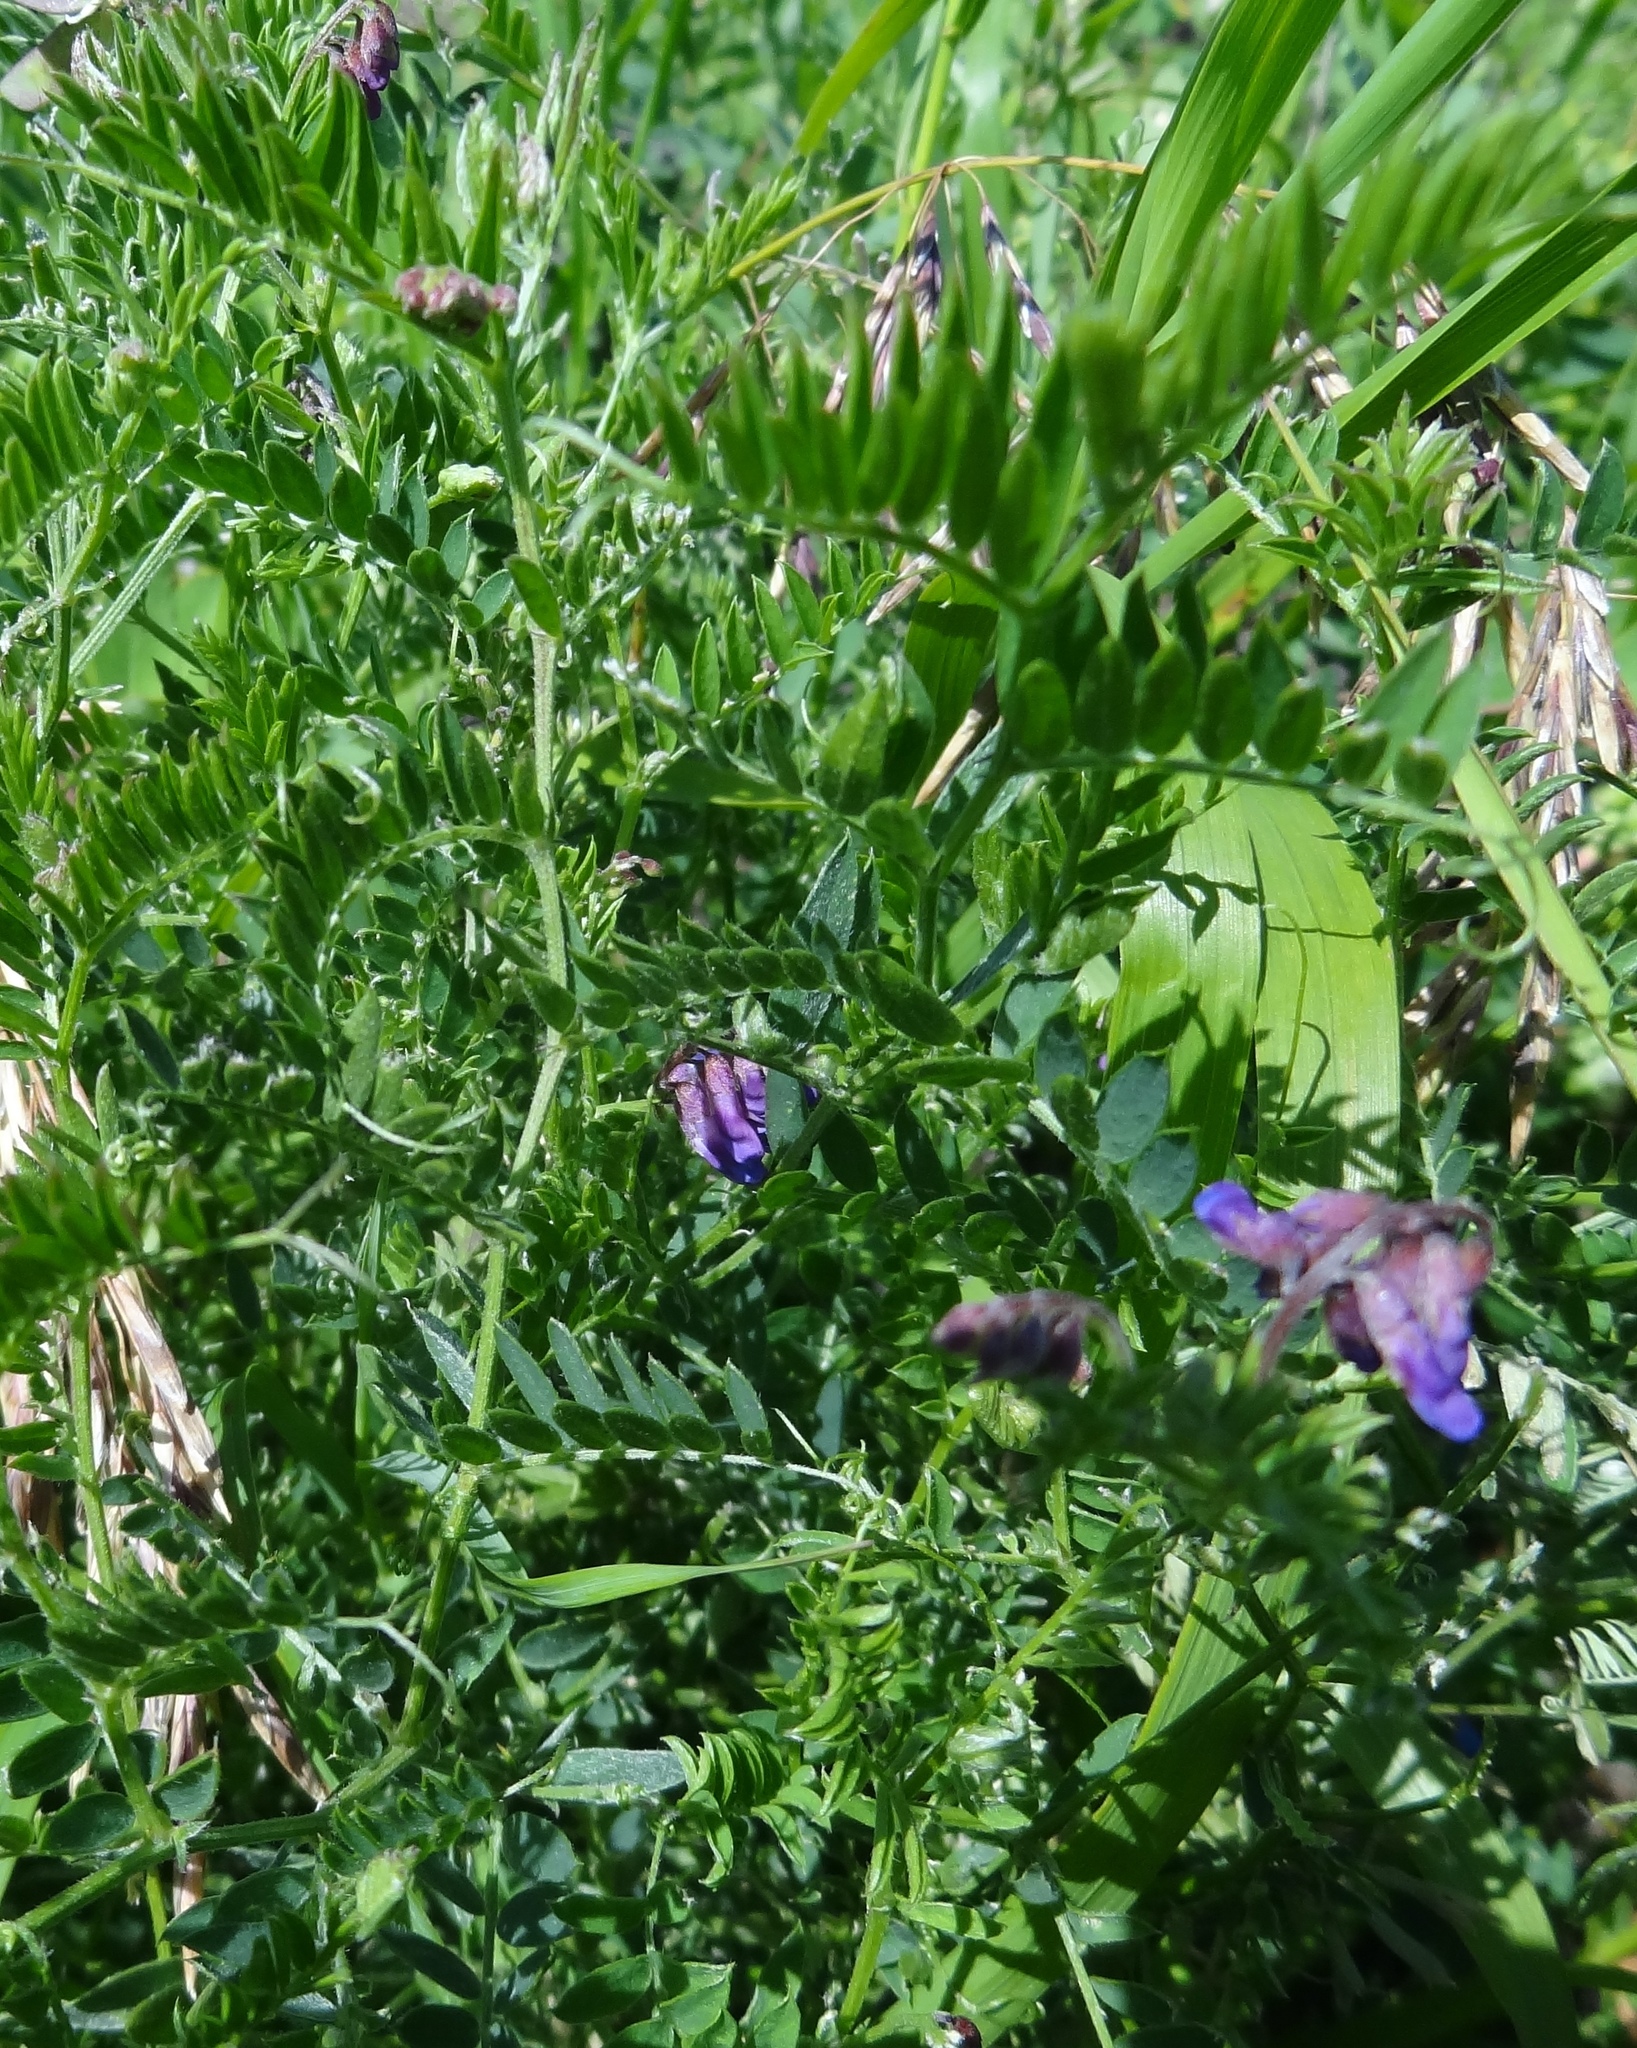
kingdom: Plantae
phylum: Tracheophyta
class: Magnoliopsida
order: Fabales
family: Fabaceae
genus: Vicia
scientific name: Vicia cracca
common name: Bird vetch
